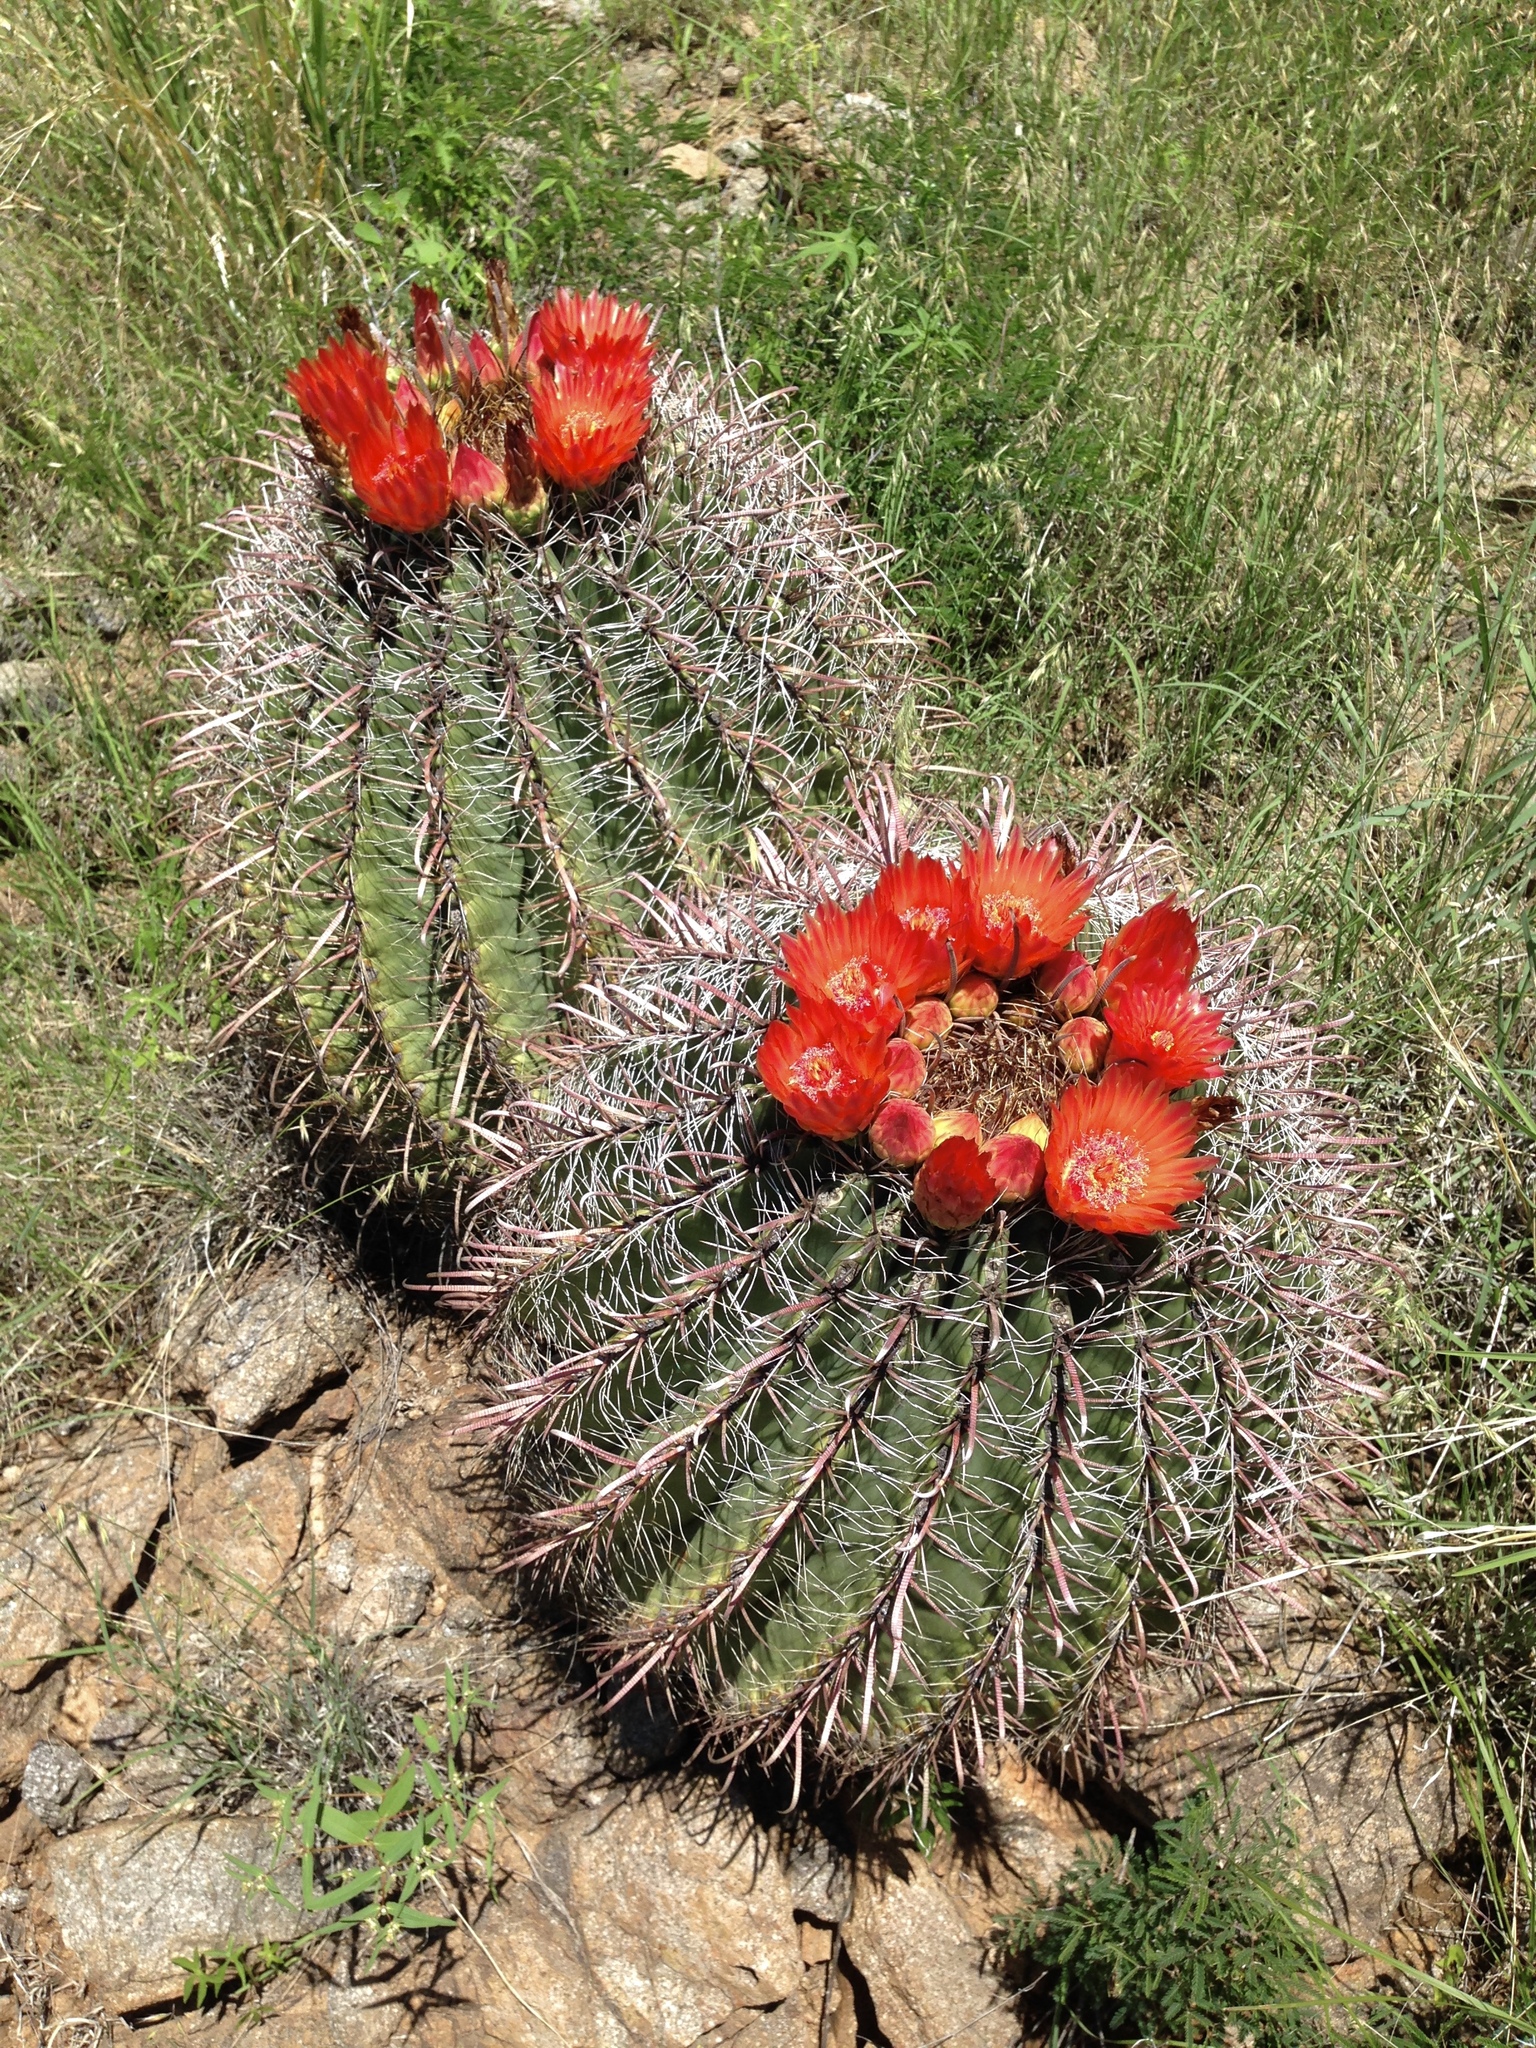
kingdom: Plantae
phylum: Tracheophyta
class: Magnoliopsida
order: Caryophyllales
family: Cactaceae
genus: Ferocactus
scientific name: Ferocactus wislizeni
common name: Candy barrel cactus
